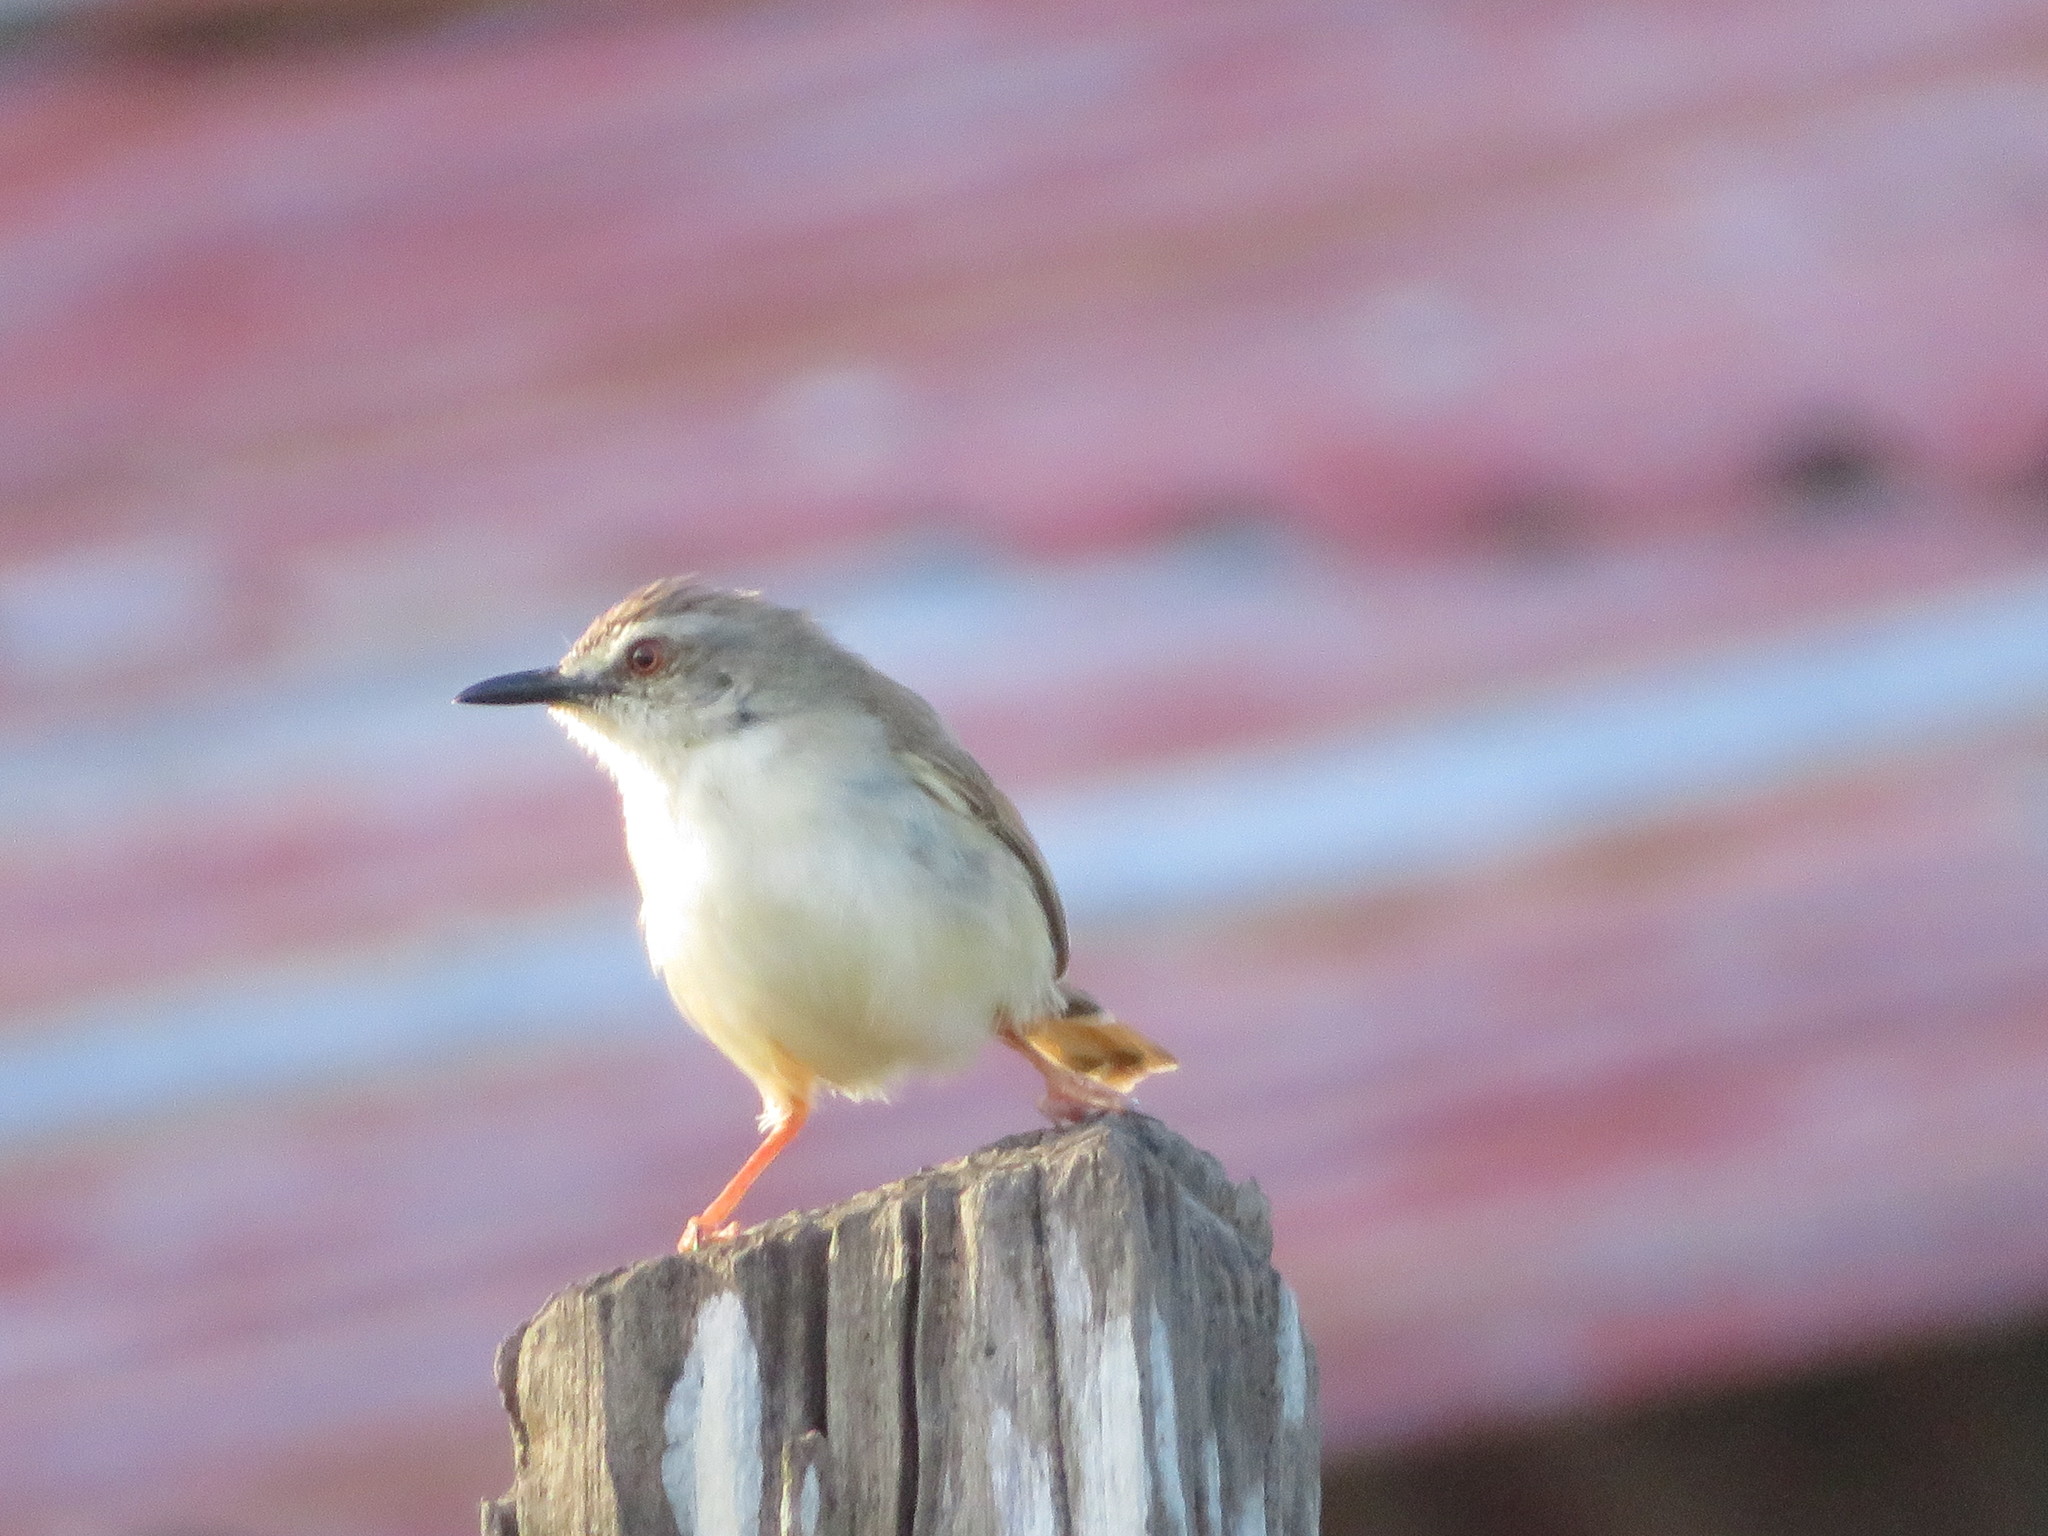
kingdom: Animalia
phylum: Chordata
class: Aves
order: Passeriformes
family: Cisticolidae
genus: Prinia
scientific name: Prinia subflava
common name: Tawny-flanked prinia
